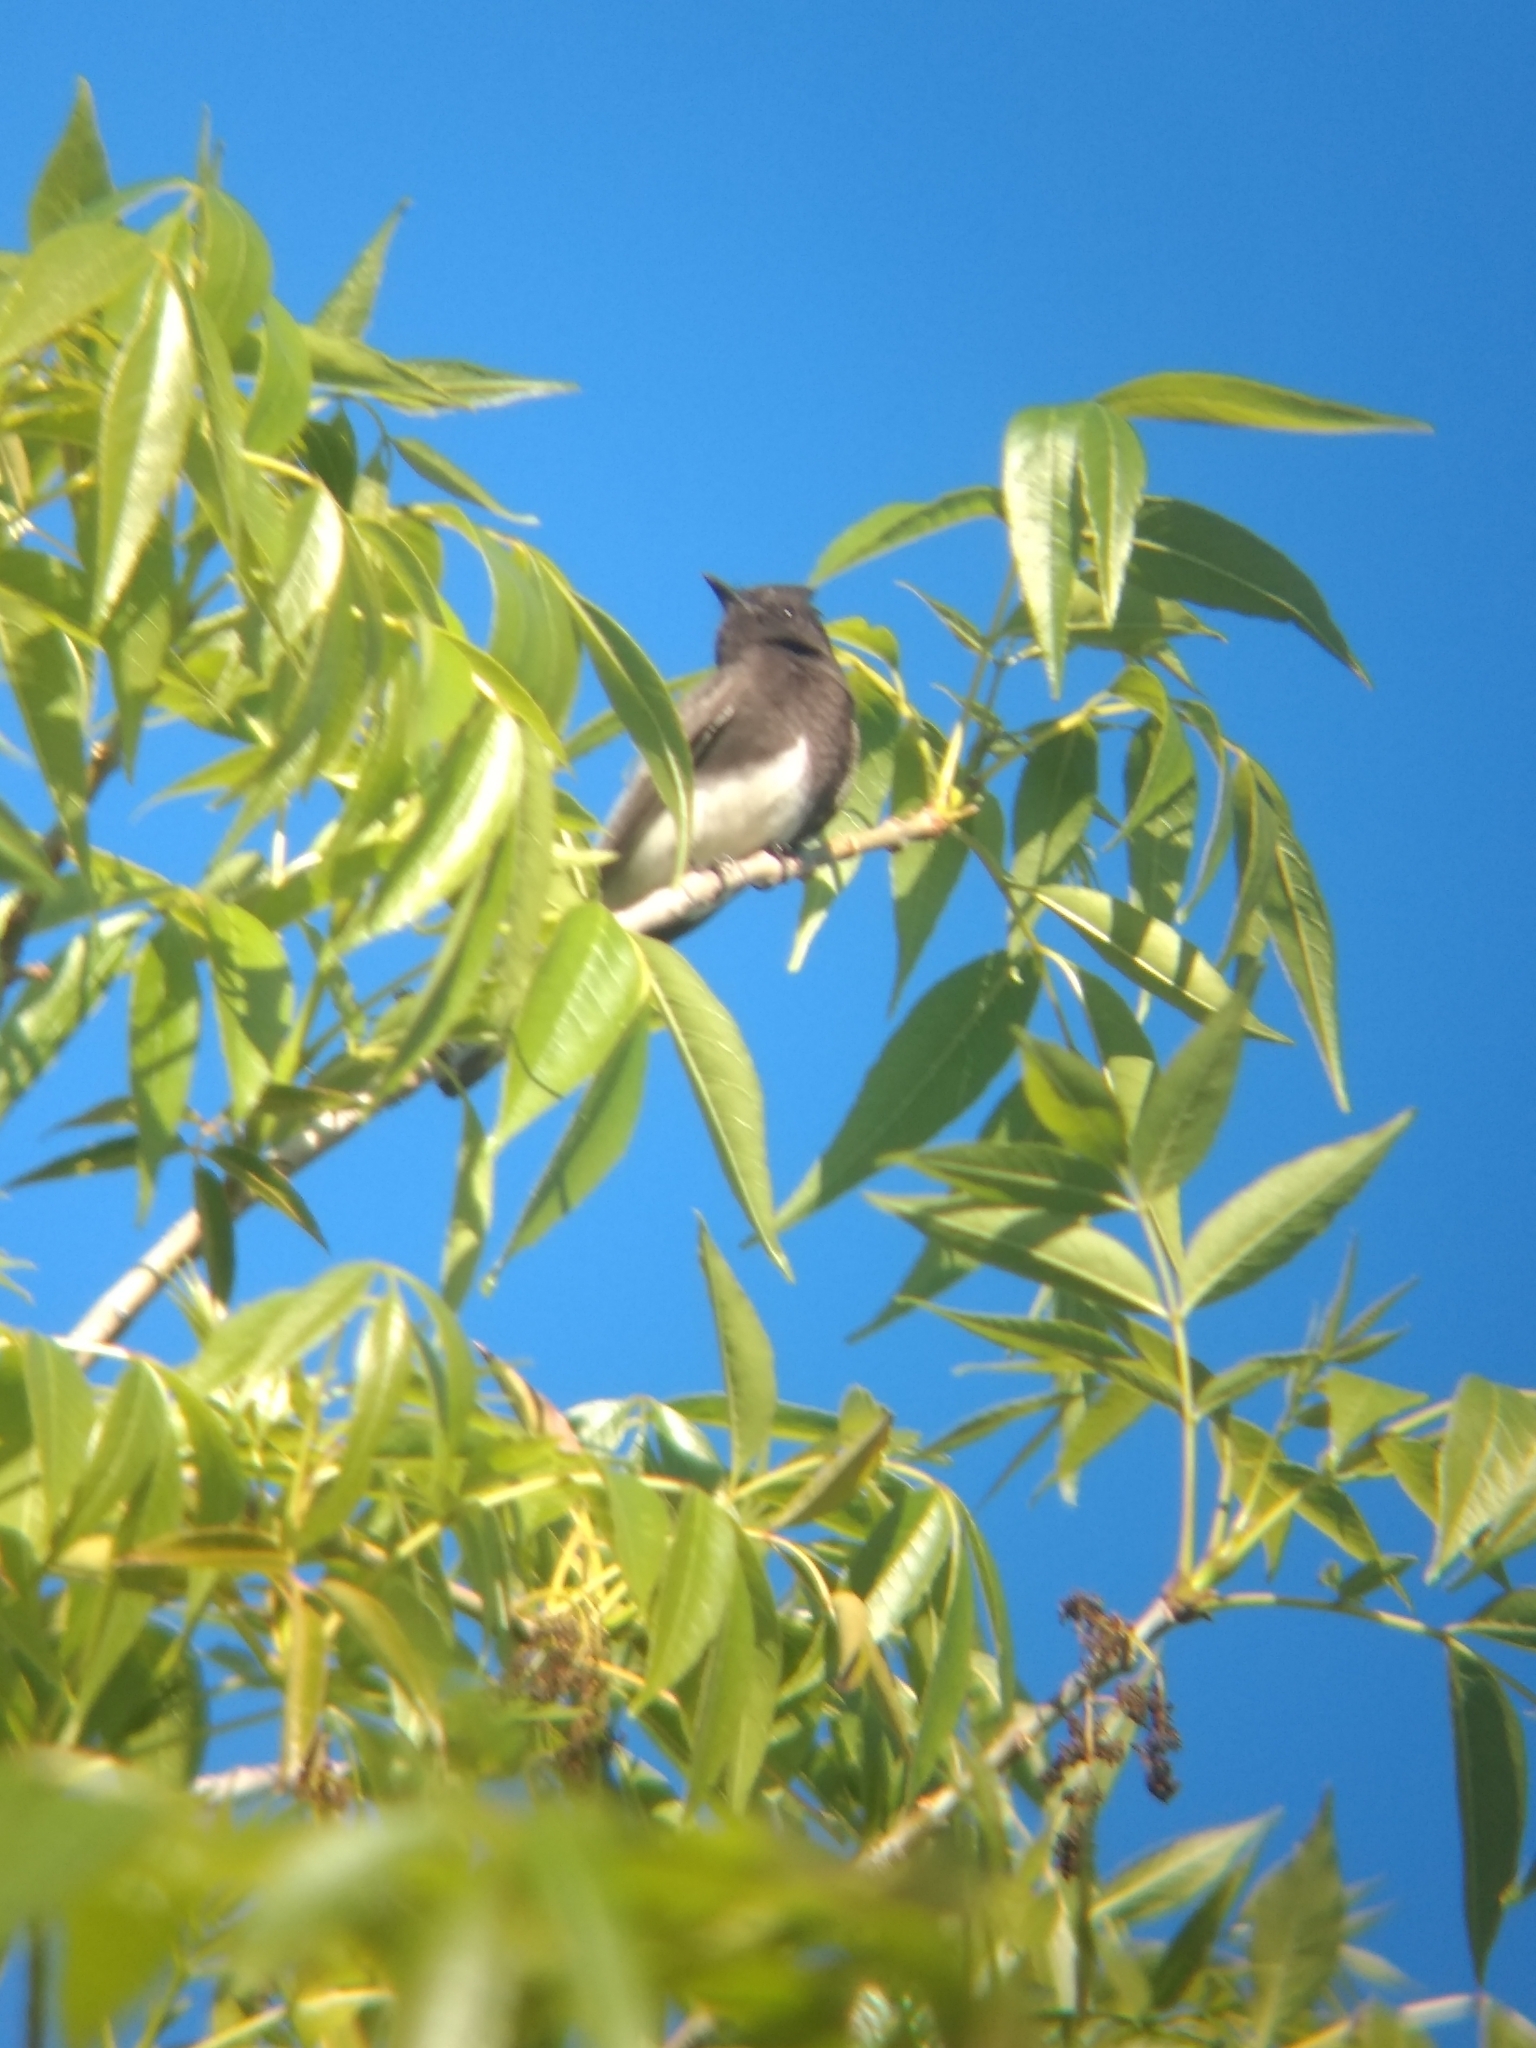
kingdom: Animalia
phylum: Chordata
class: Aves
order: Passeriformes
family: Tyrannidae
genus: Sayornis
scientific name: Sayornis nigricans
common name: Black phoebe
